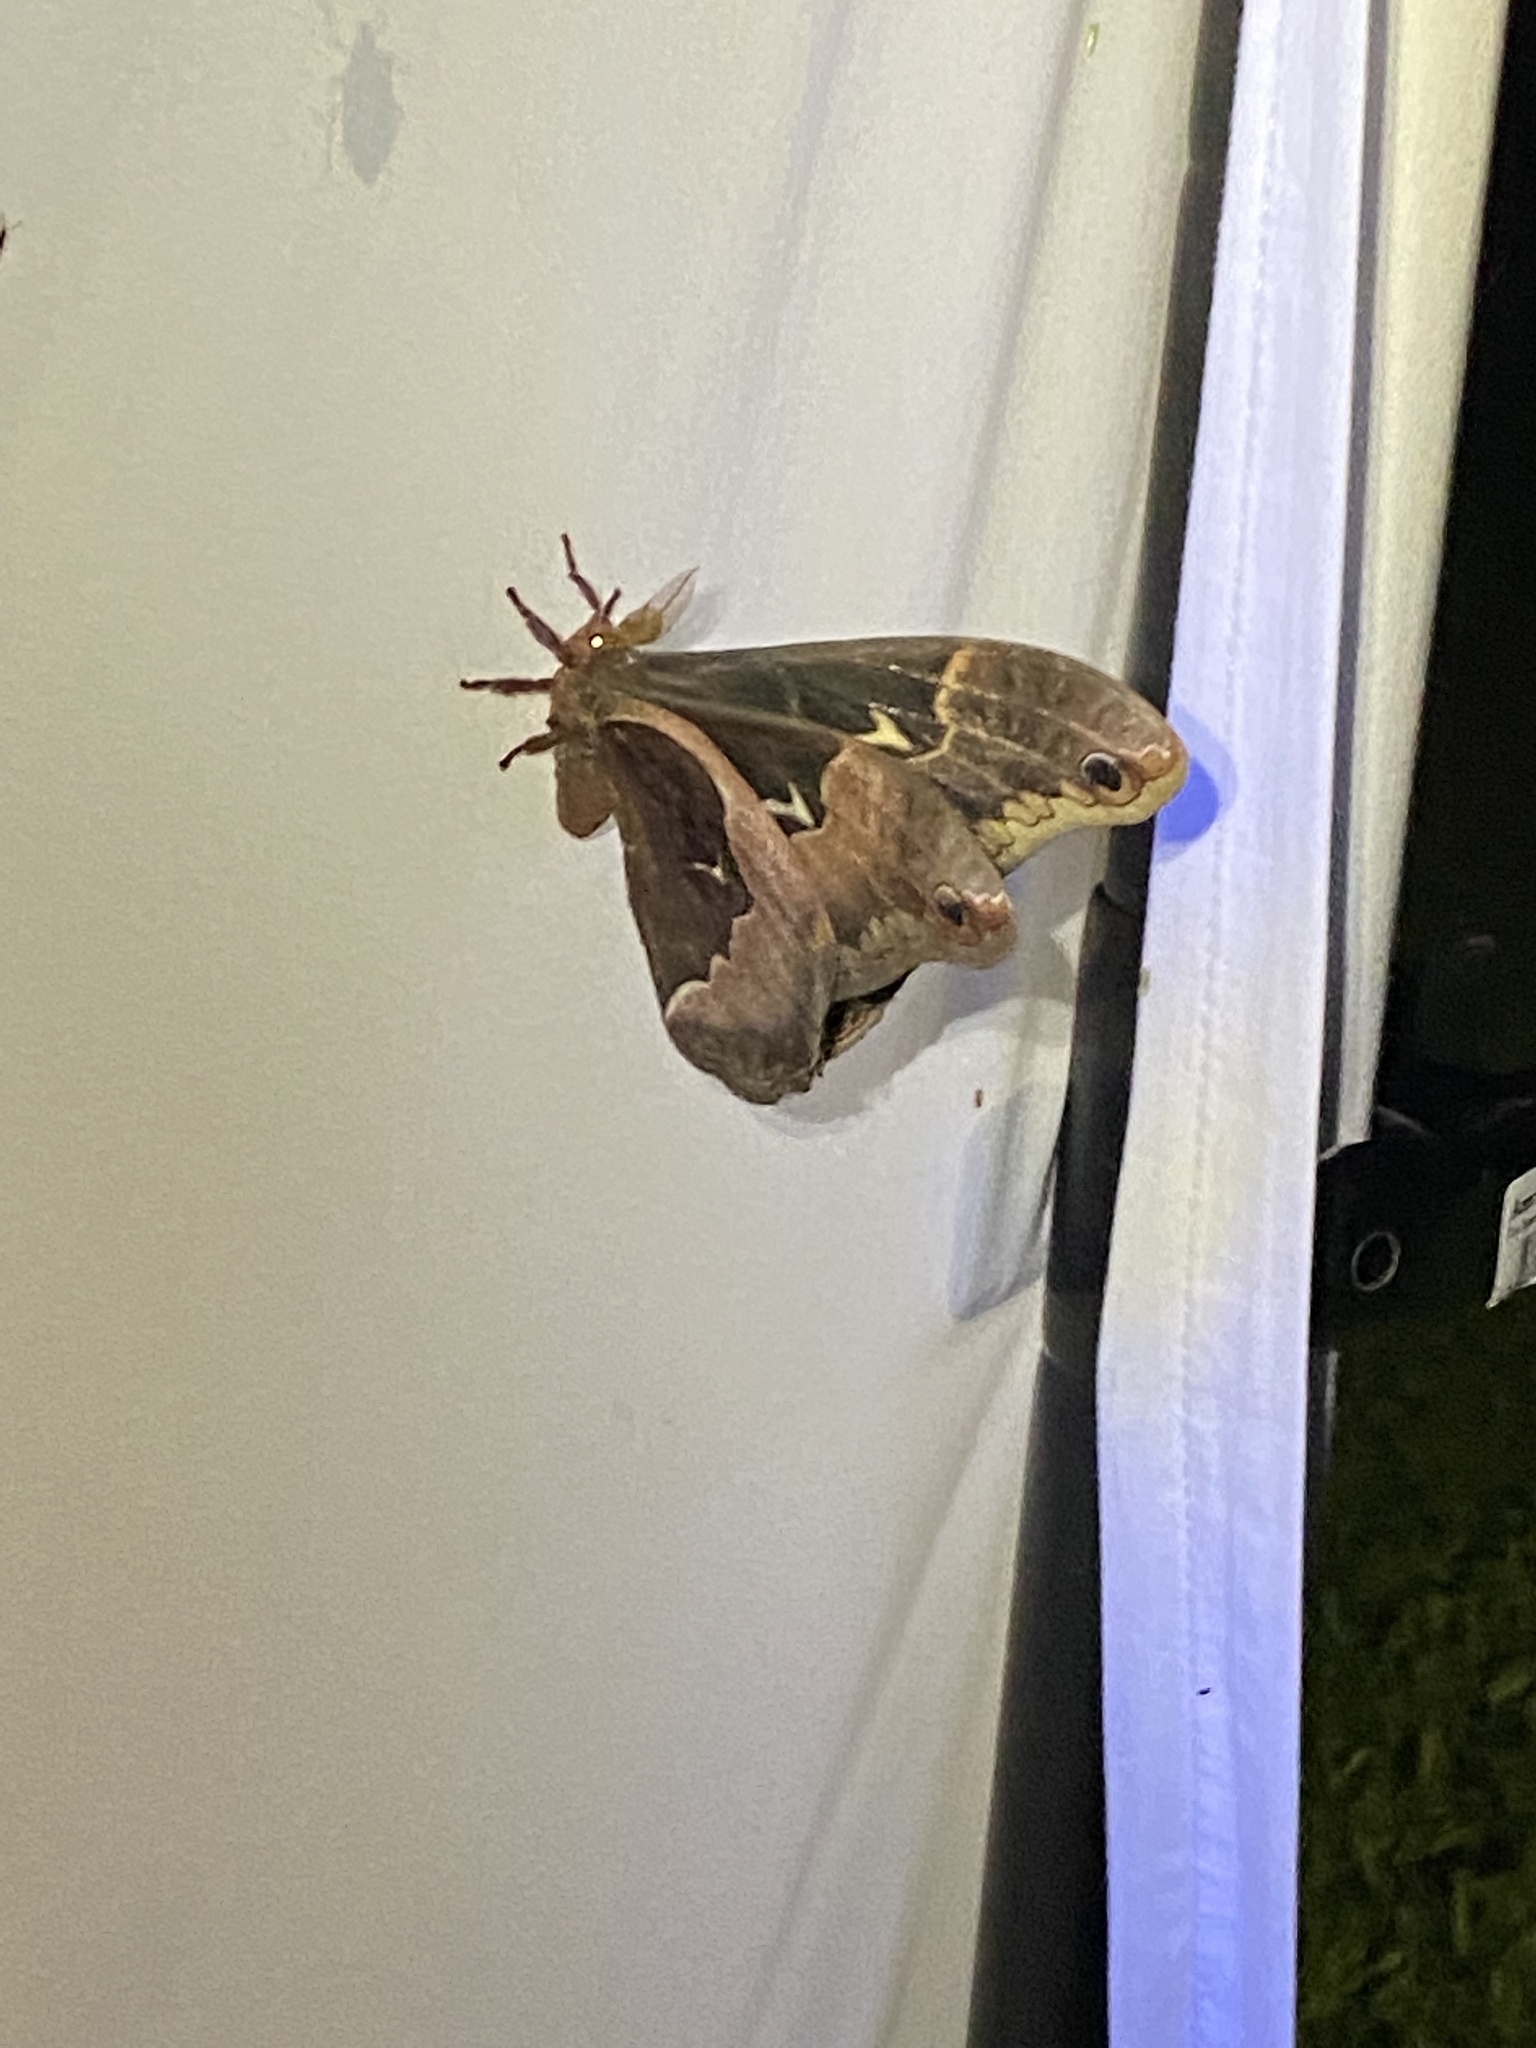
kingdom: Animalia
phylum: Arthropoda
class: Insecta
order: Lepidoptera
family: Saturniidae
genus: Callosamia
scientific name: Callosamia angulifera
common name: Tulip tree silkmoth
